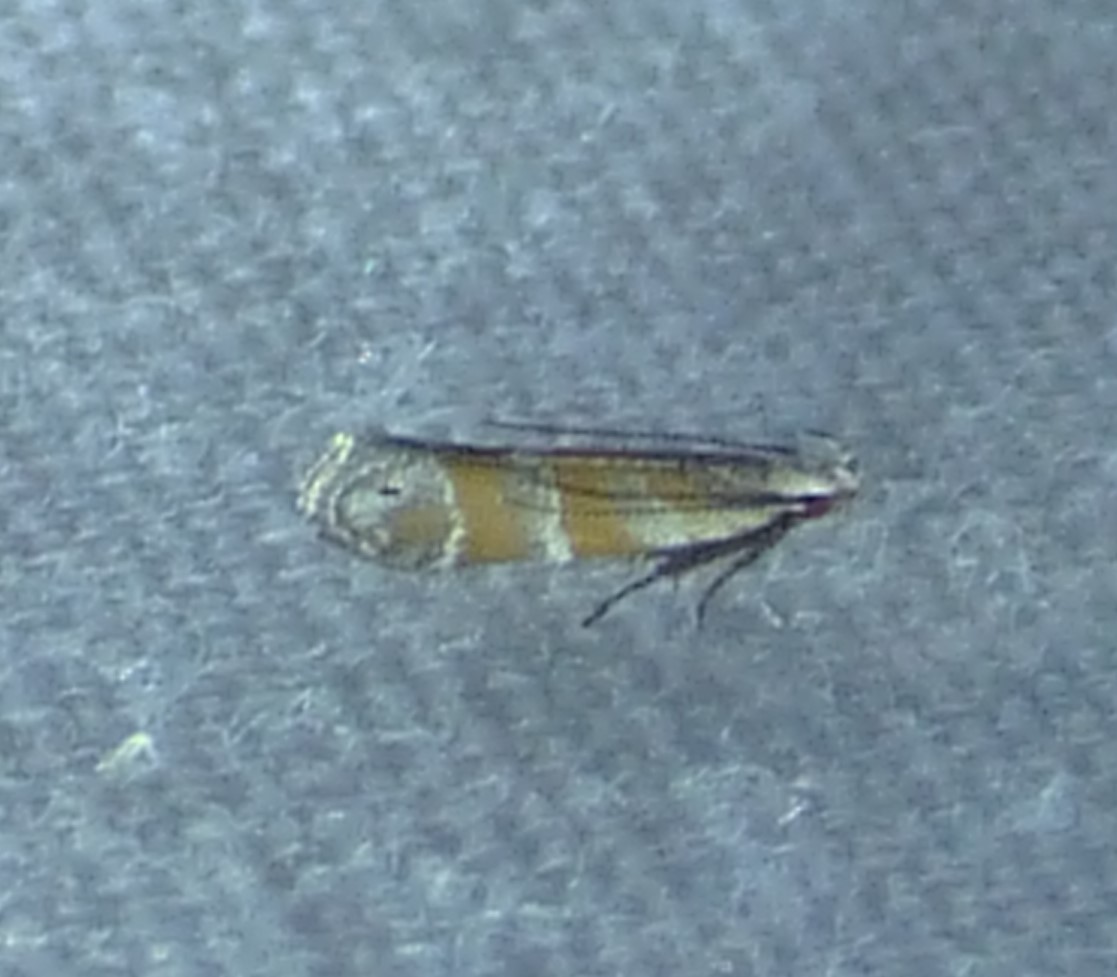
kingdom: Animalia
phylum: Arthropoda
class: Insecta
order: Lepidoptera
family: Gelechiidae
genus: Battaristis
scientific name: Battaristis vittella
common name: Orange stripe-backed moth
